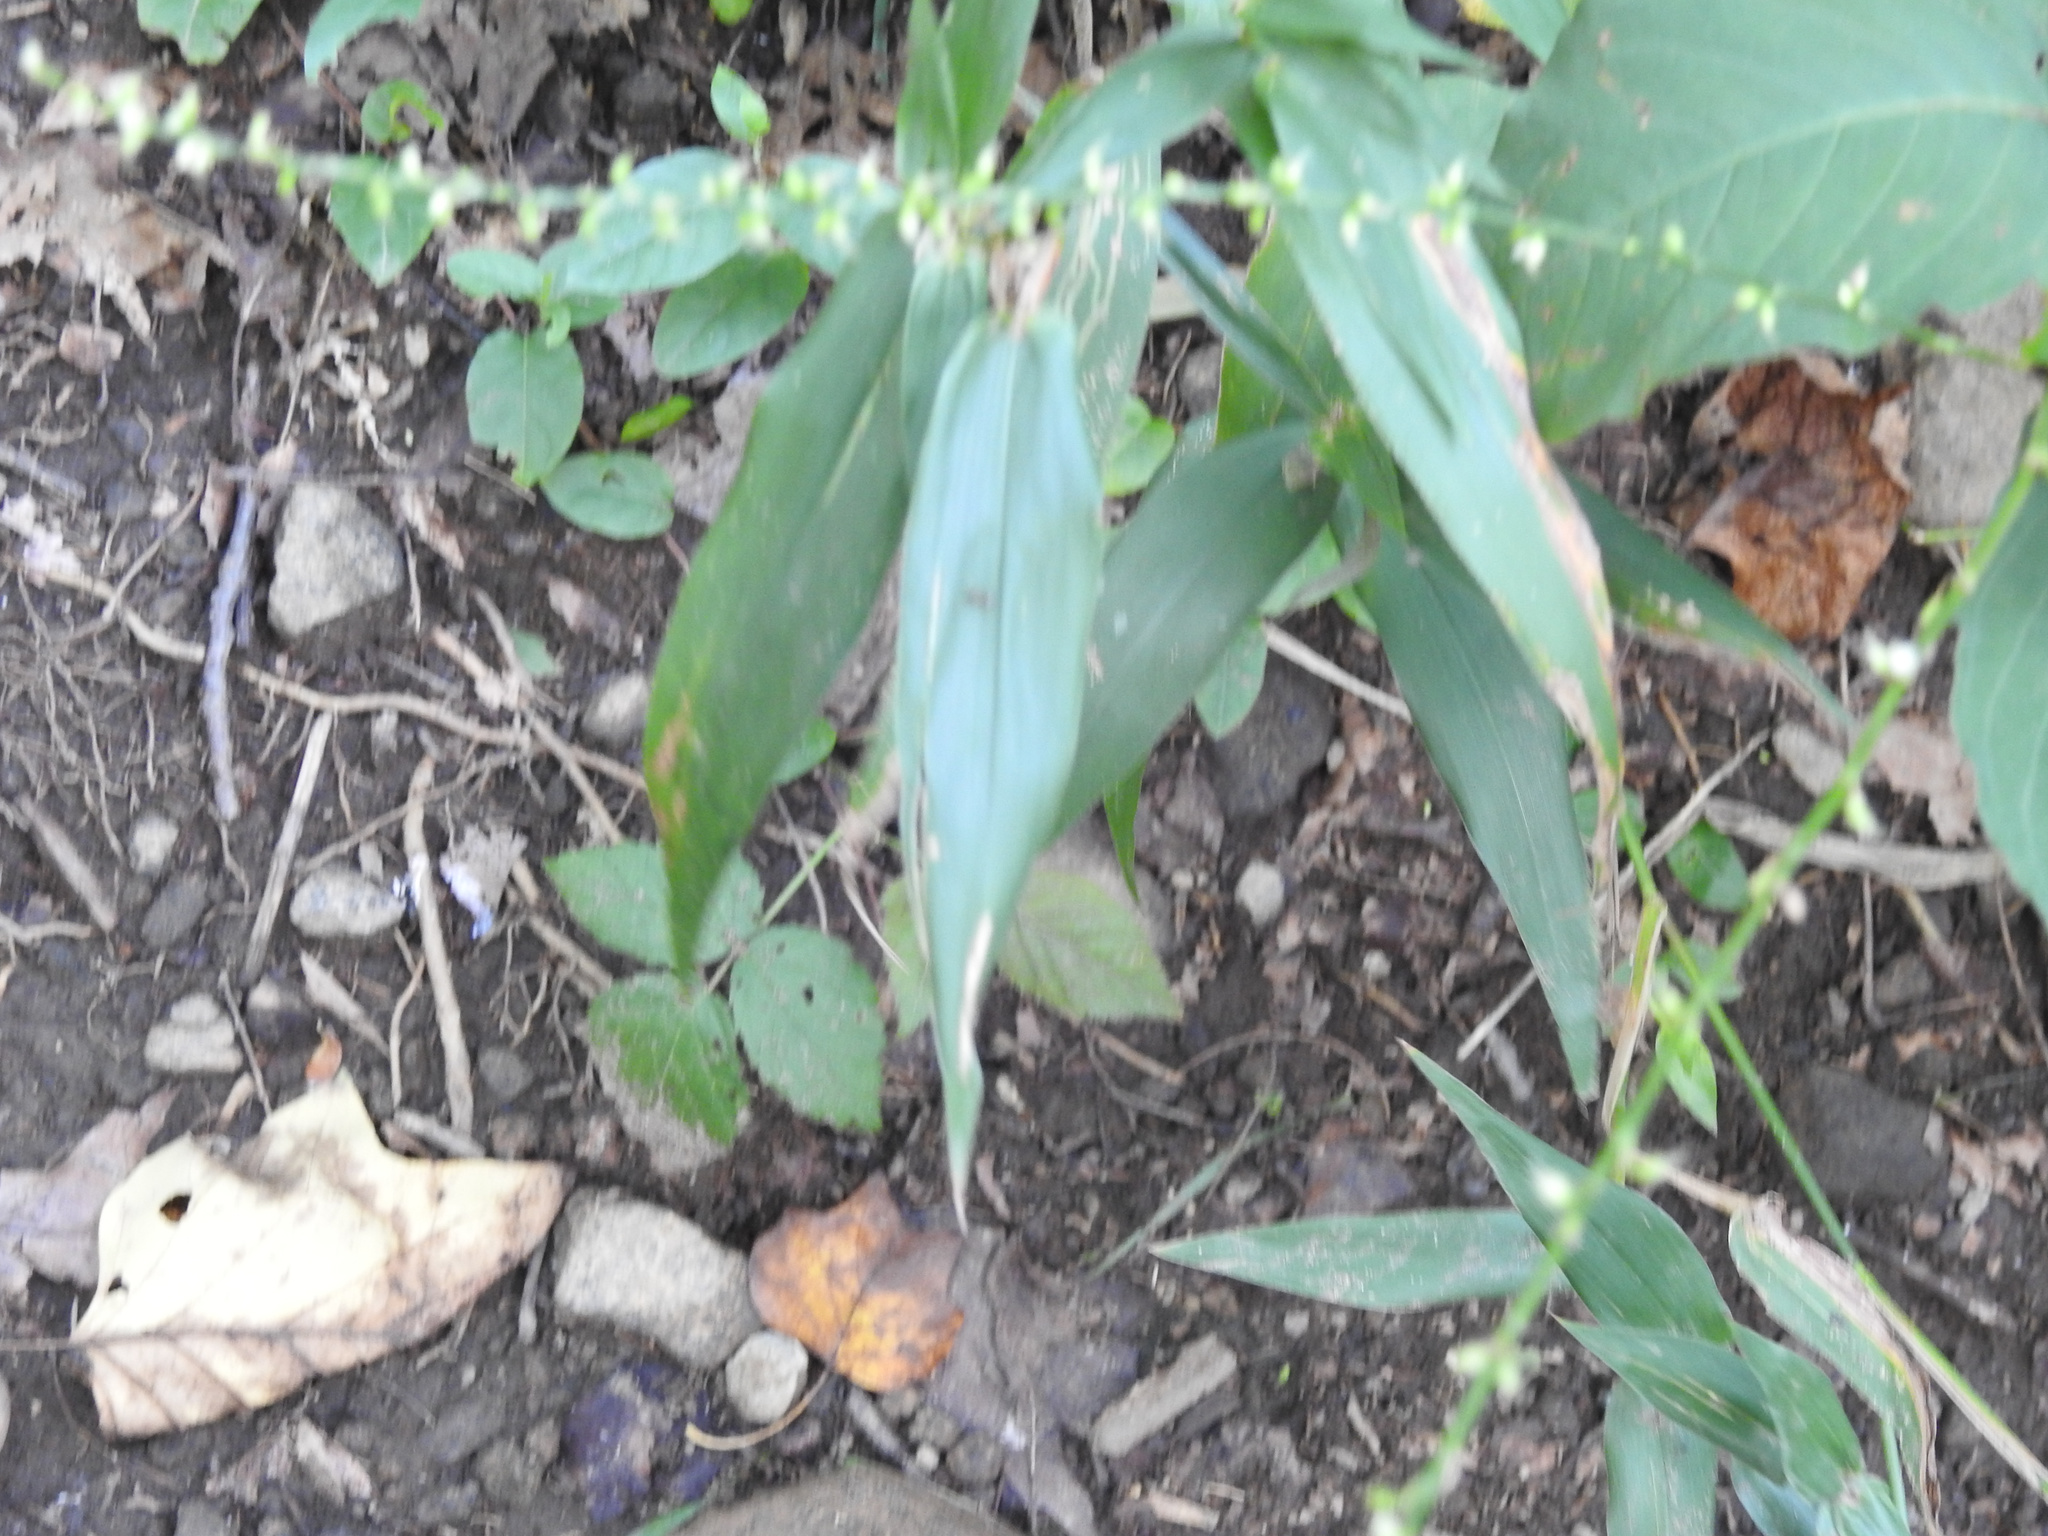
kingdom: Plantae
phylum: Tracheophyta
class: Magnoliopsida
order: Caryophyllales
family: Polygonaceae
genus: Persicaria
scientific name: Persicaria virginiana
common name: Jumpseed
